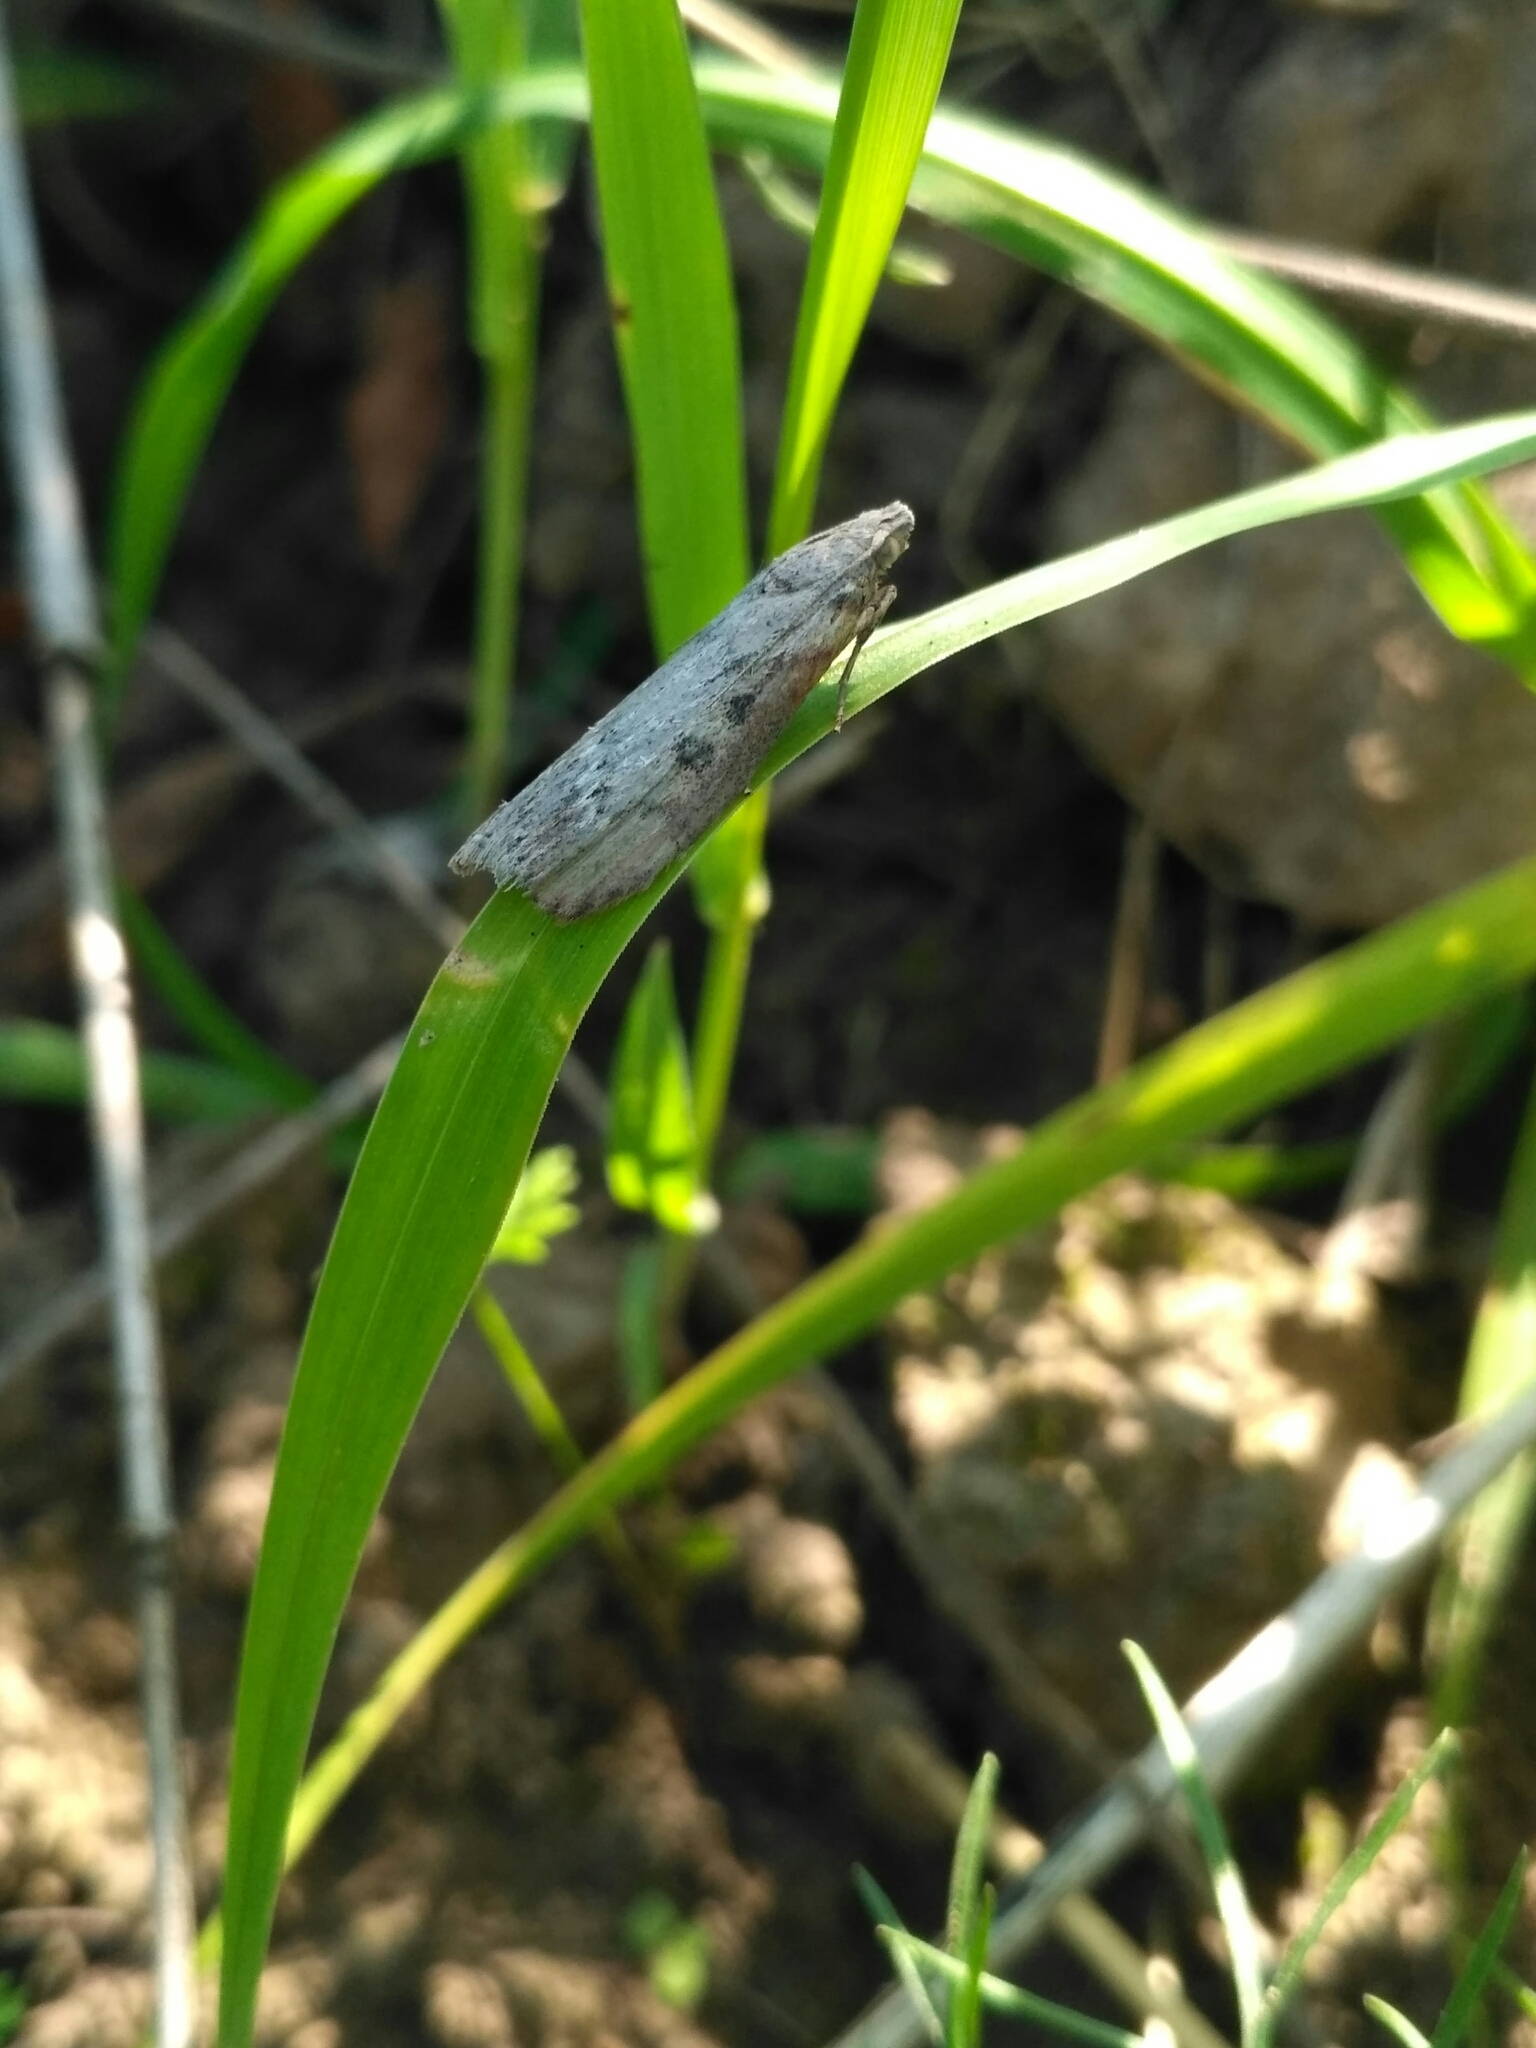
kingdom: Animalia
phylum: Arthropoda
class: Insecta
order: Lepidoptera
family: Pyralidae
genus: Lamoria
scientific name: Lamoria anella
